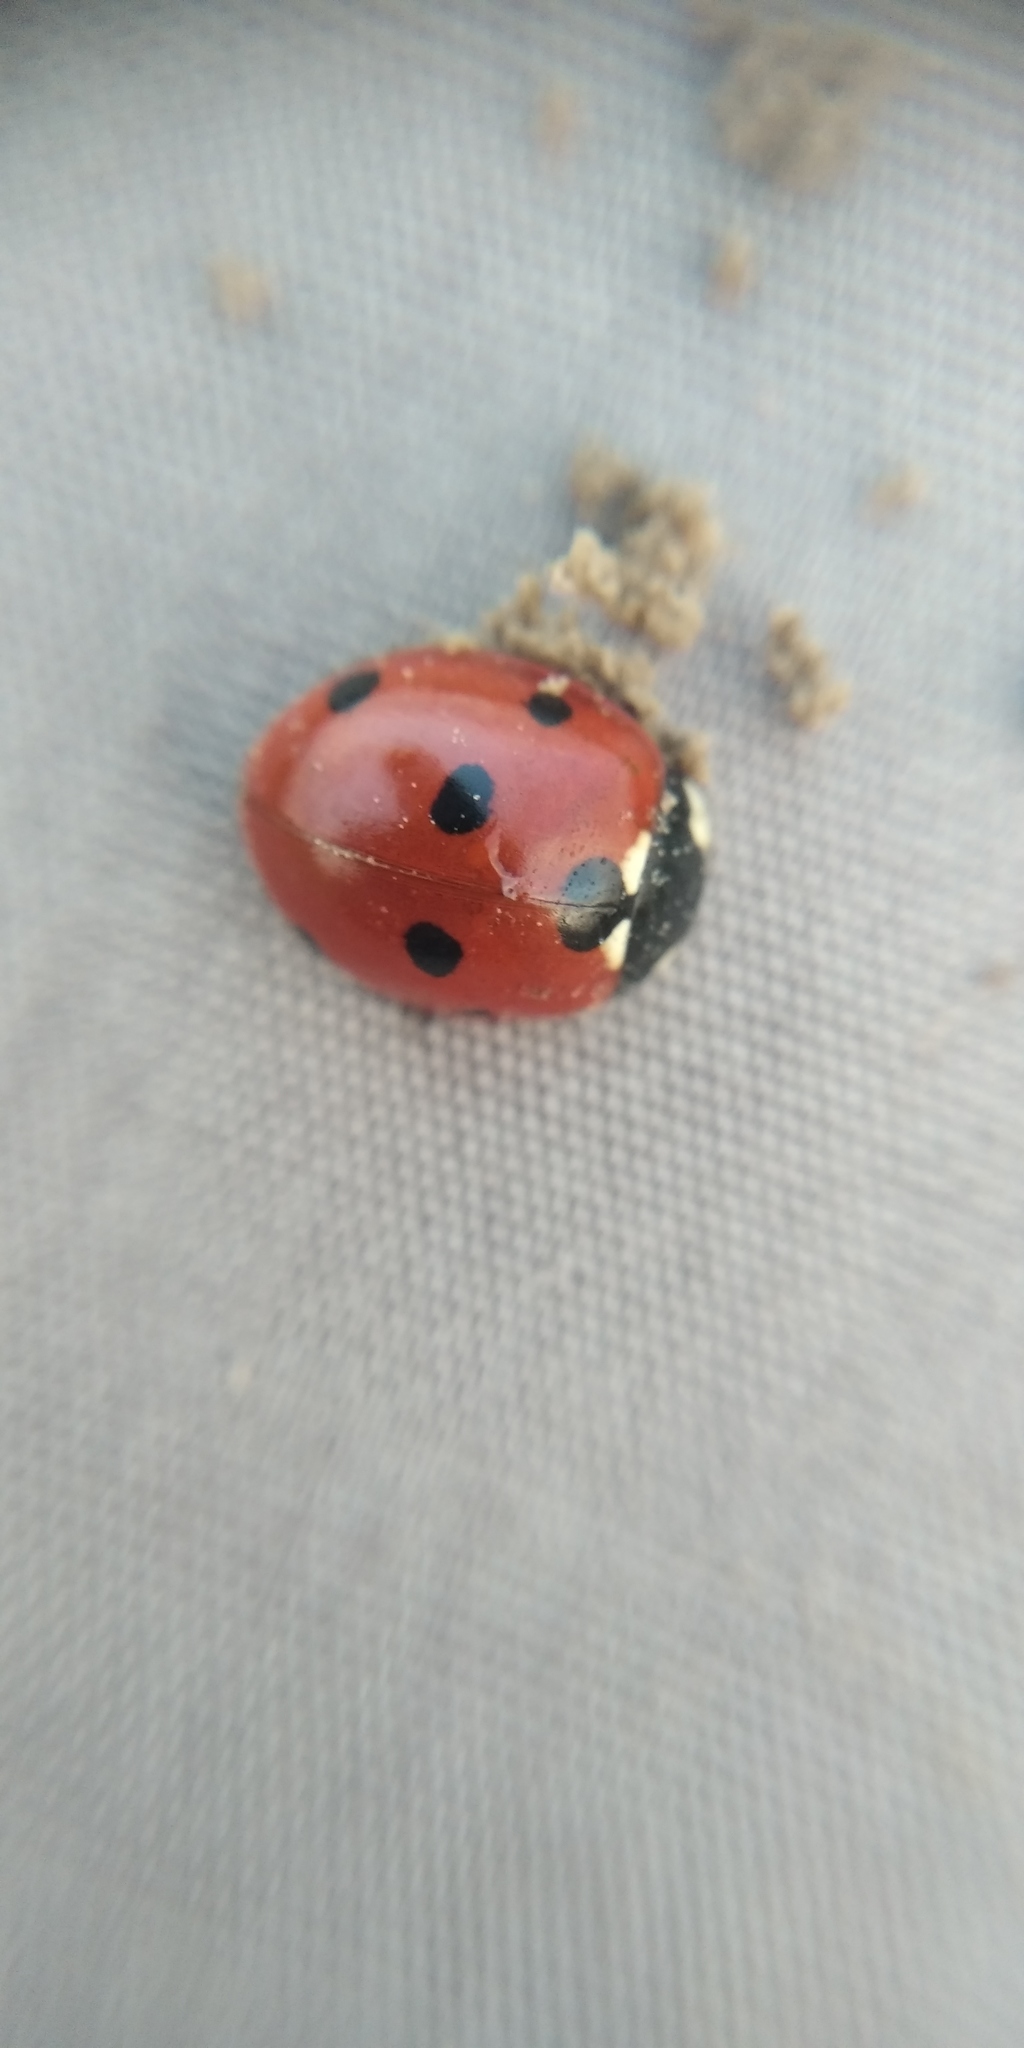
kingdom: Animalia
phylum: Arthropoda
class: Insecta
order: Coleoptera
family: Coccinellidae
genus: Coccinella
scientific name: Coccinella septempunctata
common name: Sevenspotted lady beetle
